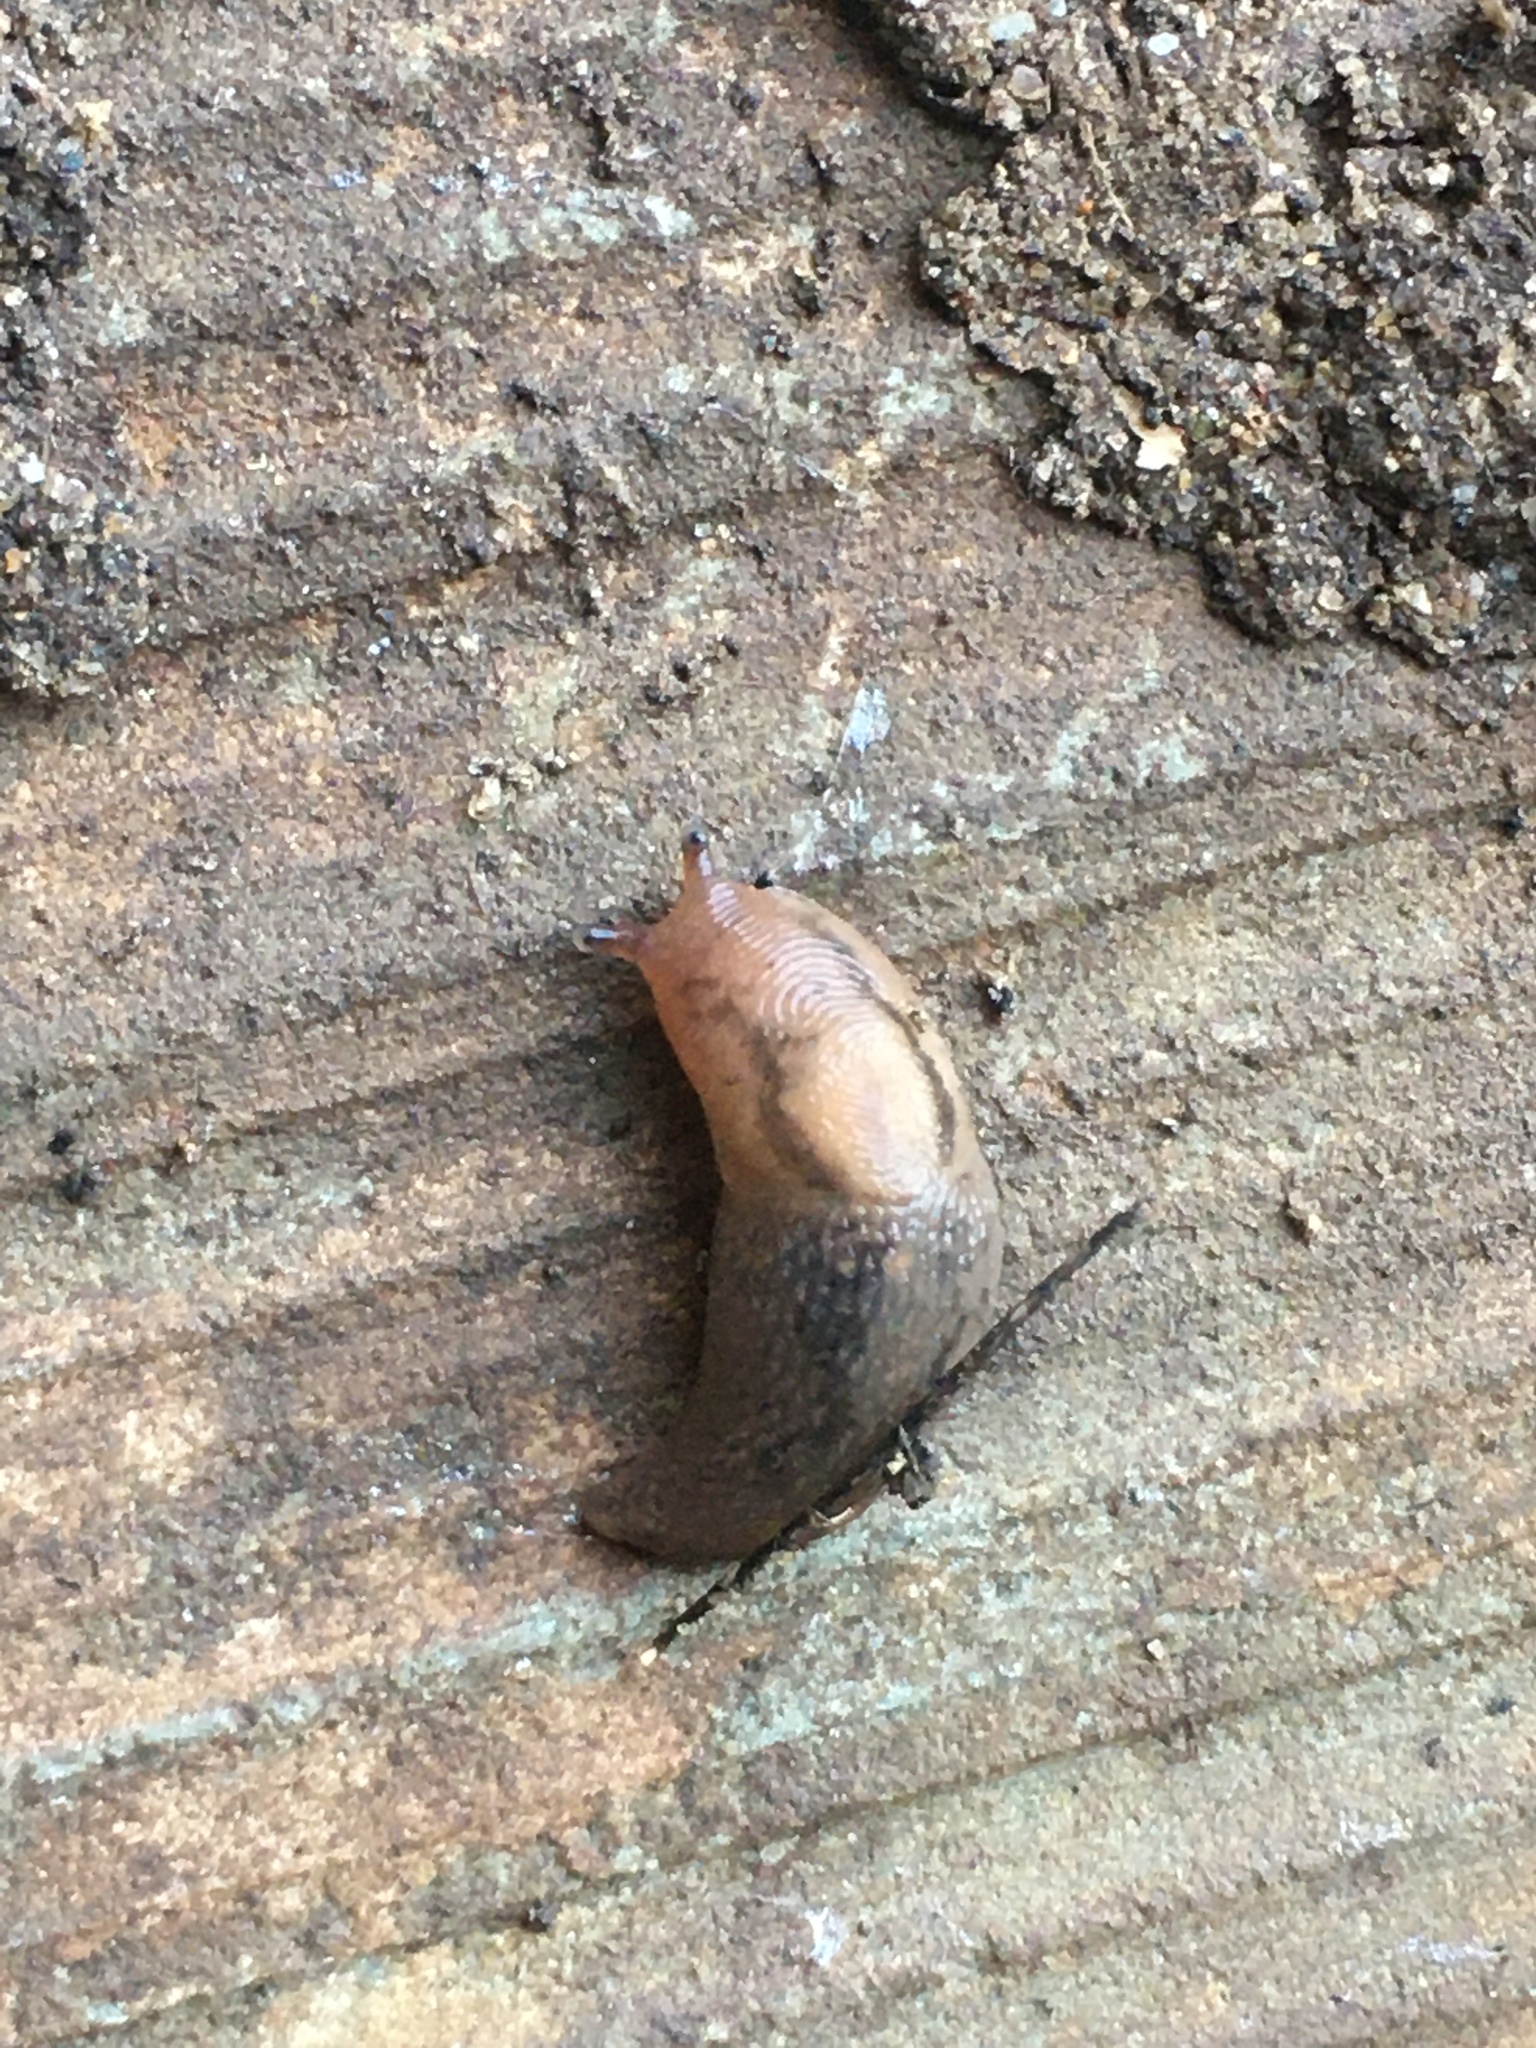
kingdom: Animalia
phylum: Mollusca
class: Gastropoda
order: Stylommatophora
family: Limacidae
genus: Ambigolimax
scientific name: Ambigolimax
